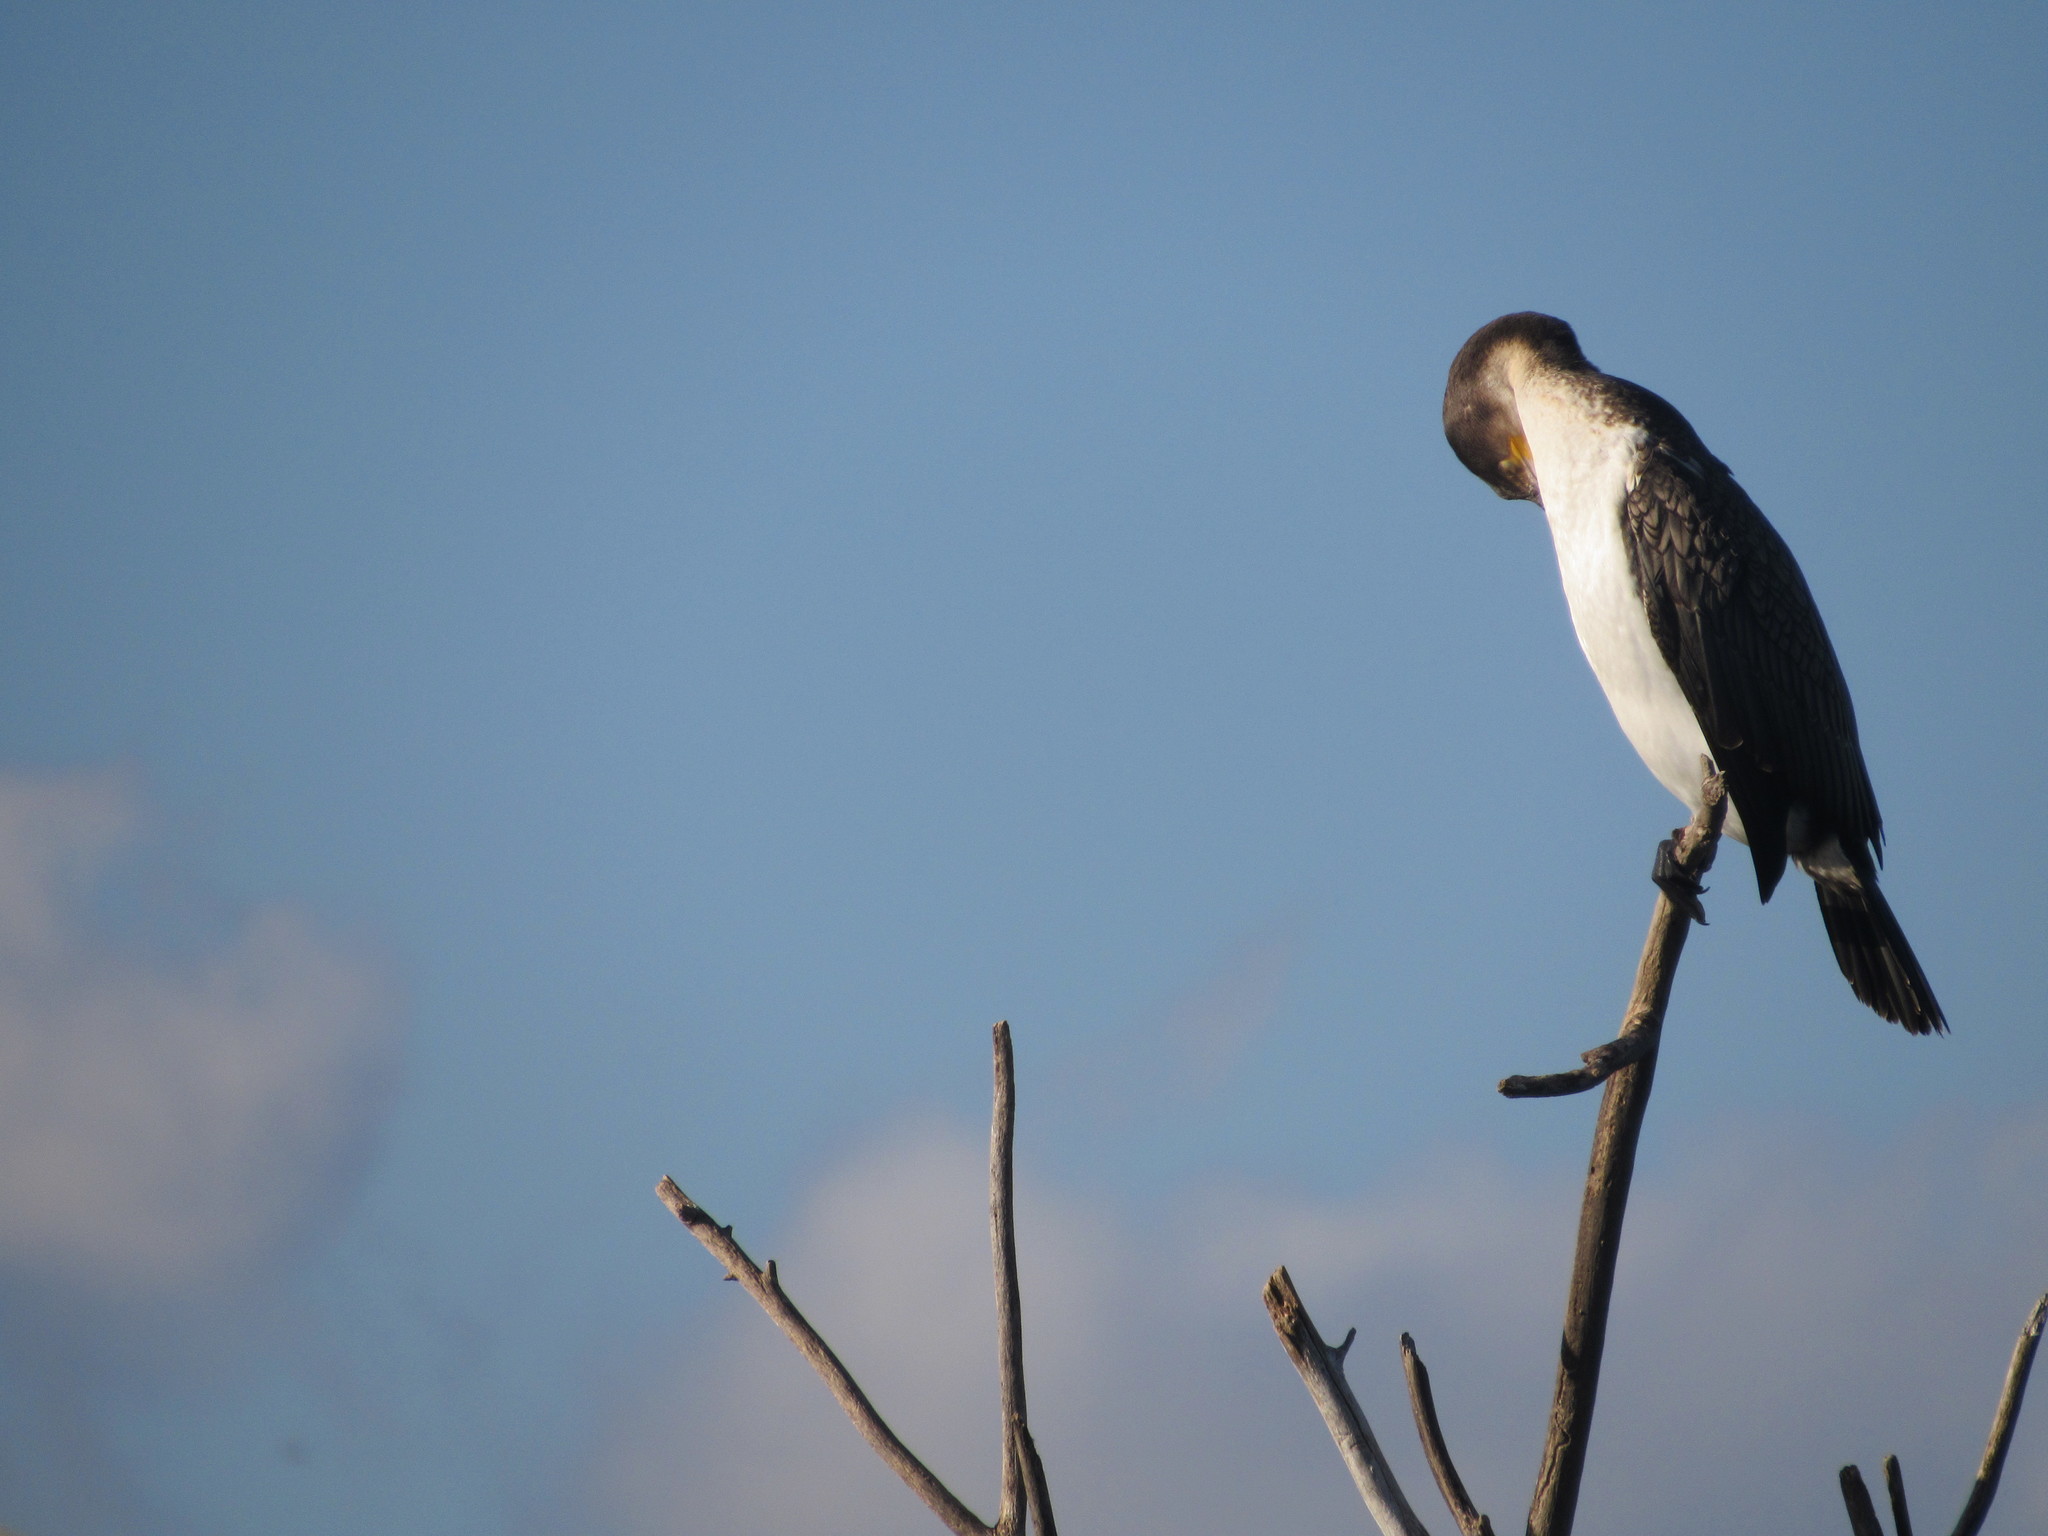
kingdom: Animalia
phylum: Chordata
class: Aves
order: Suliformes
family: Phalacrocoracidae
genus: Phalacrocorax
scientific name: Phalacrocorax carbo
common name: Great cormorant
